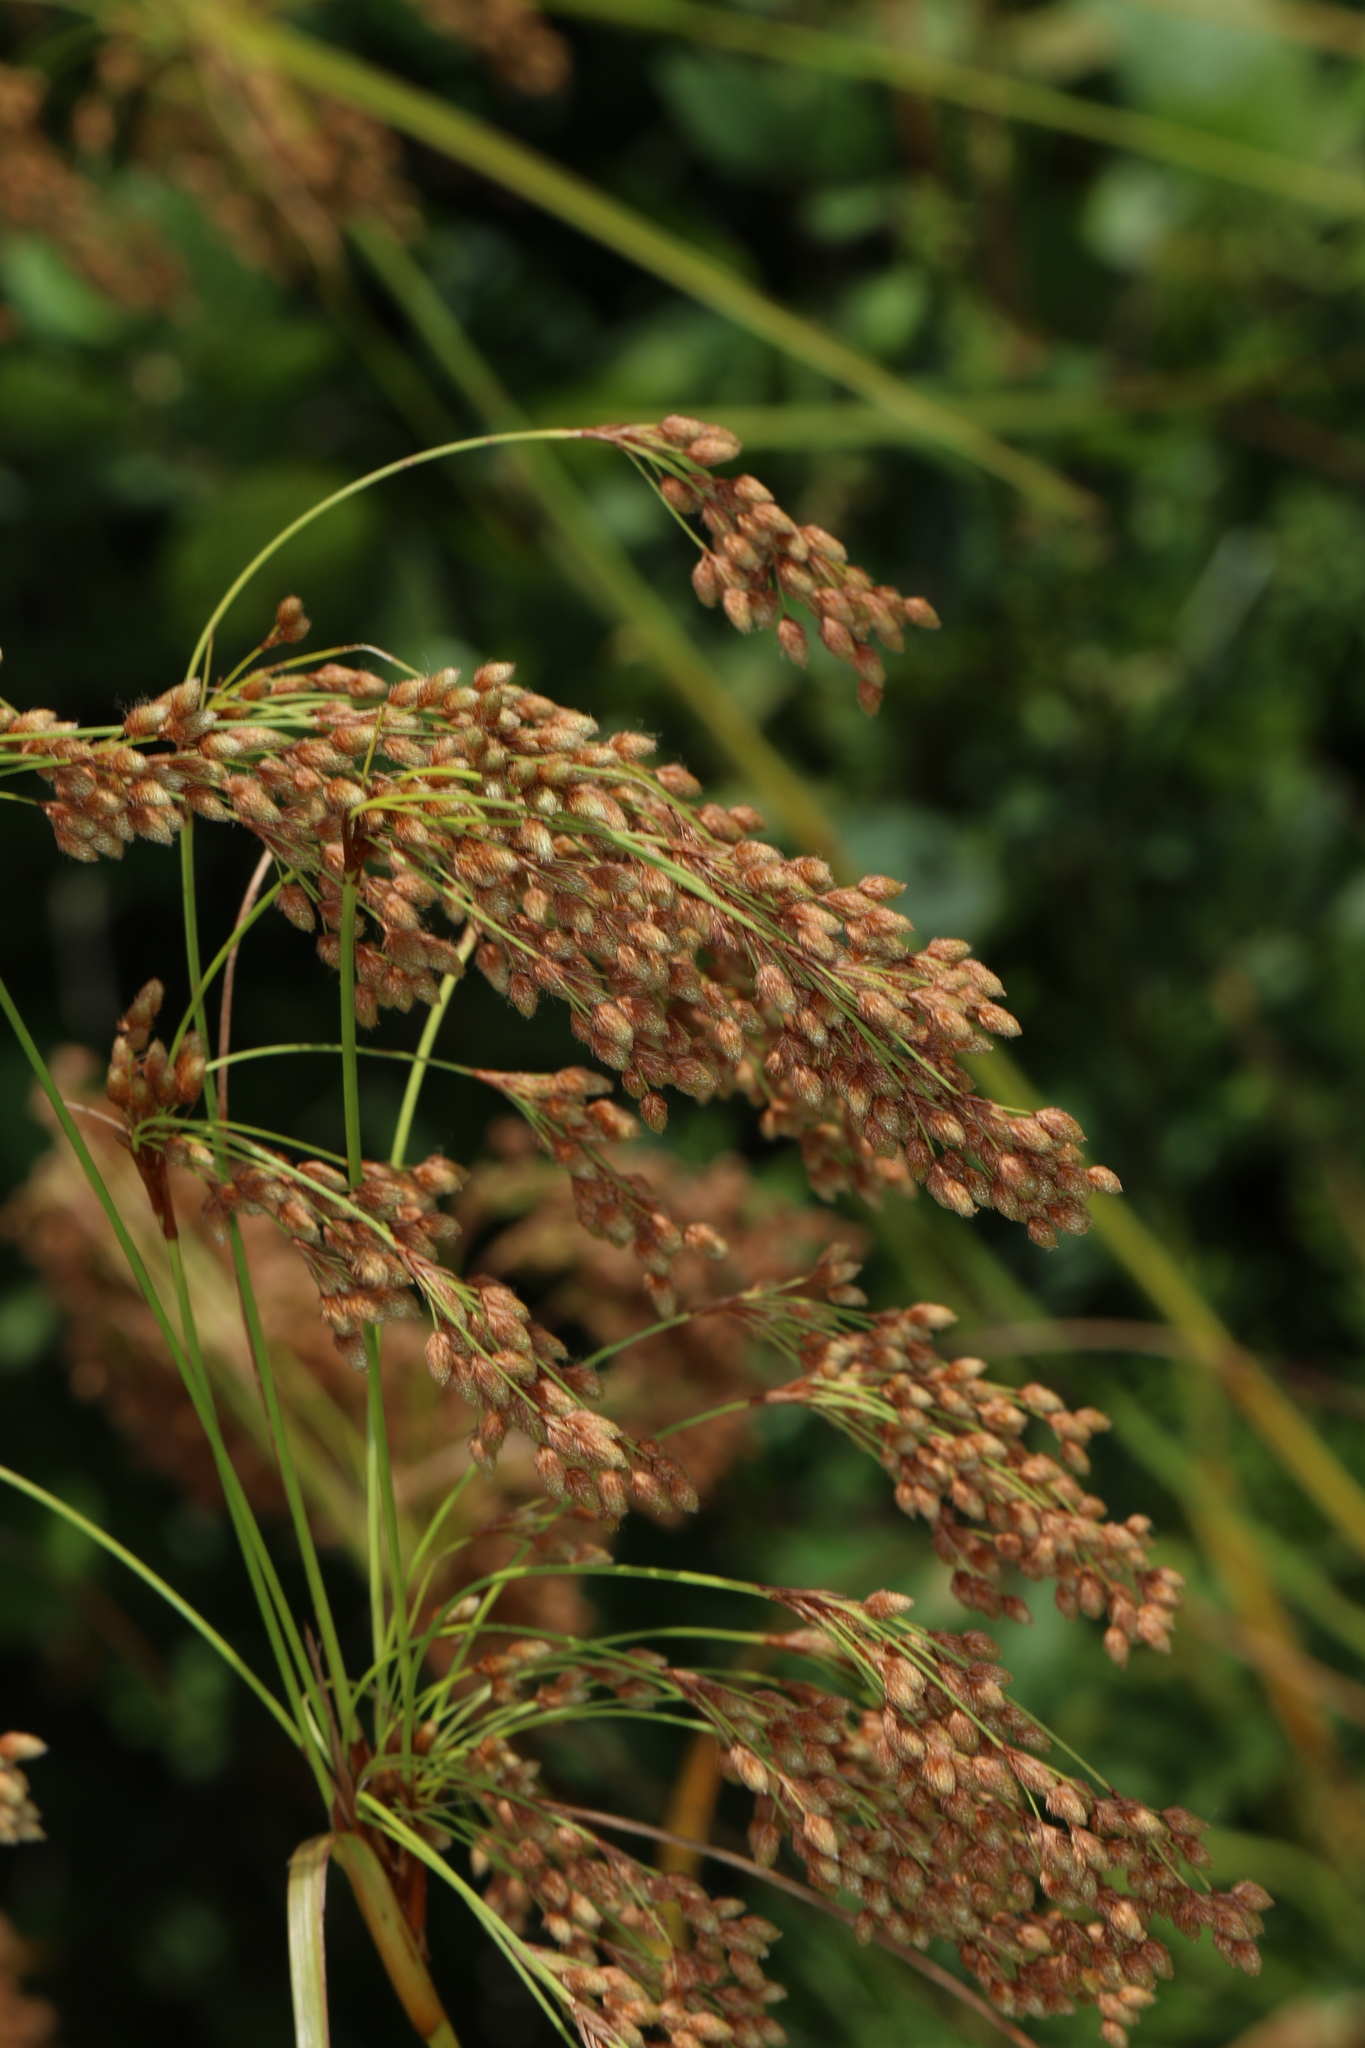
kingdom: Plantae
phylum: Tracheophyta
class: Liliopsida
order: Poales
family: Cyperaceae
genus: Scirpus
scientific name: Scirpus cyperinus
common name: Black-sheathed bulrush
